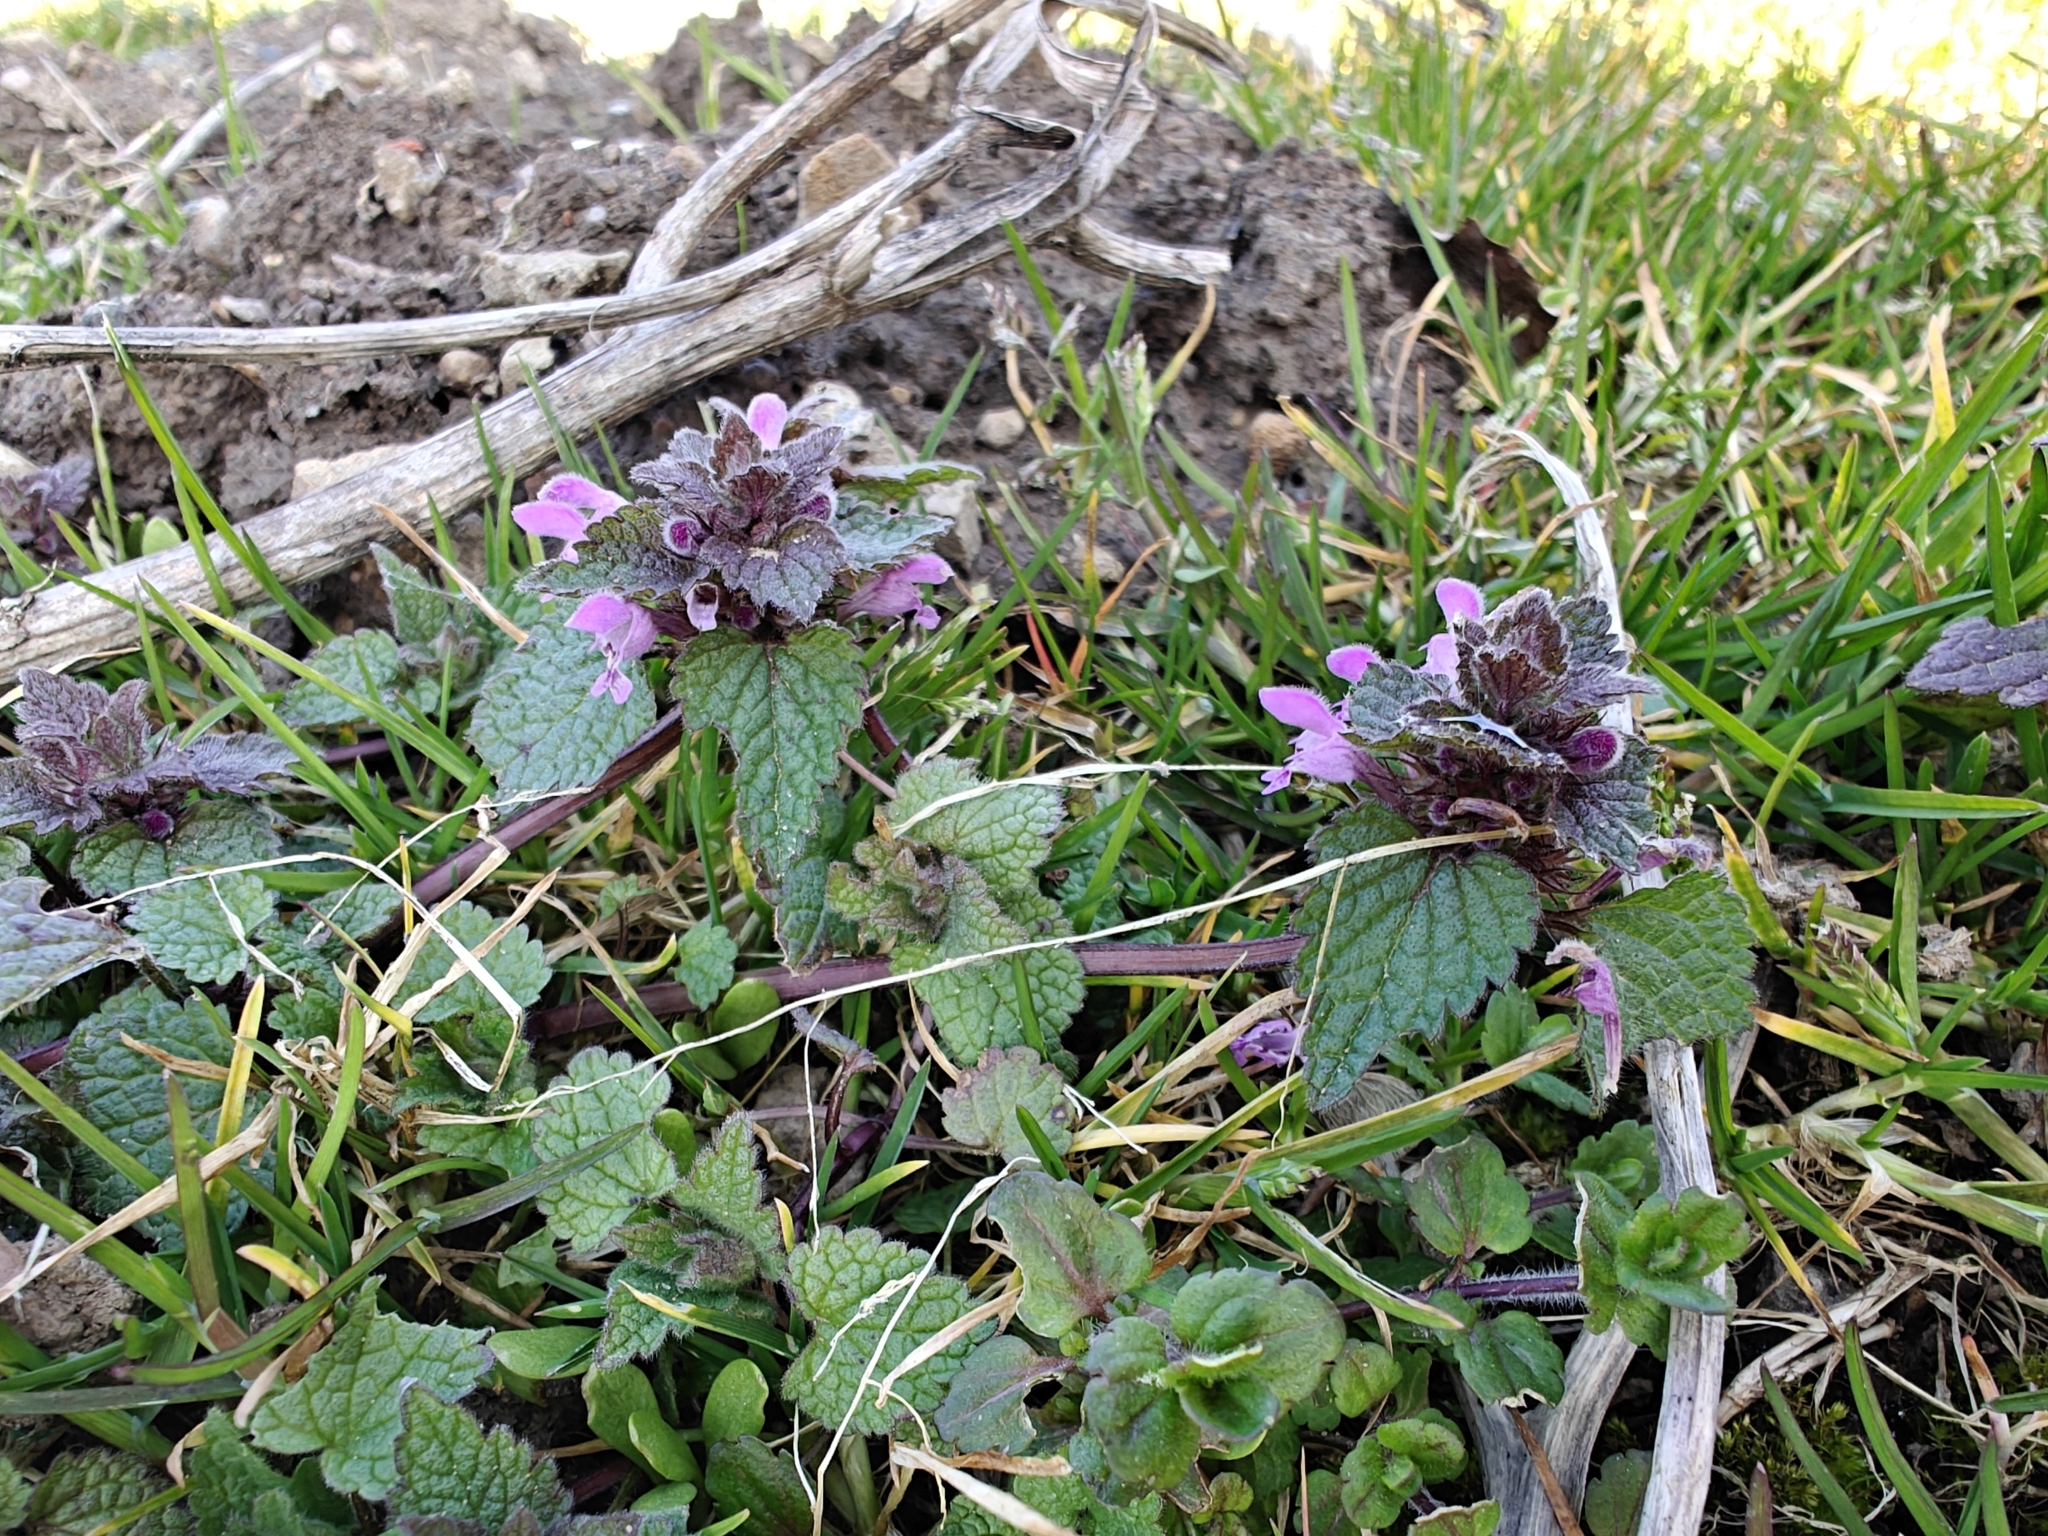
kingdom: Plantae
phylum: Tracheophyta
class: Magnoliopsida
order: Lamiales
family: Lamiaceae
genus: Lamium
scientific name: Lamium purpureum
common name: Red dead-nettle
